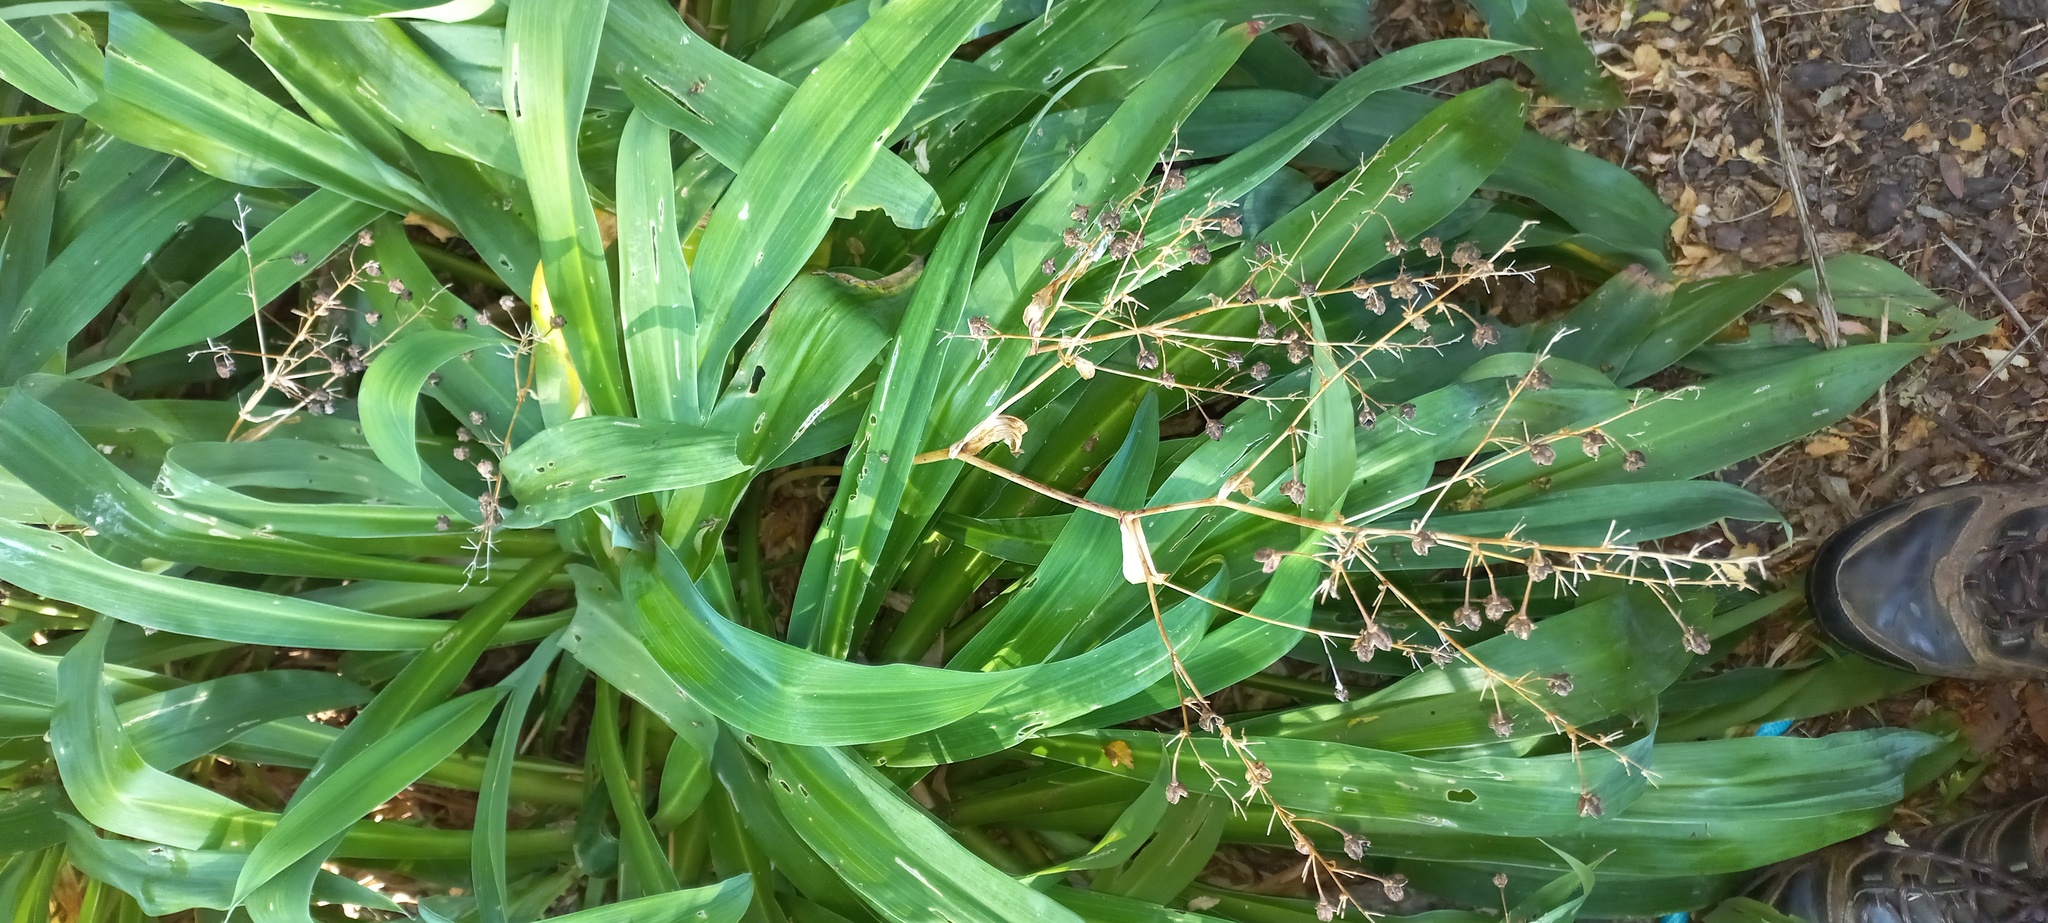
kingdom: Plantae
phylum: Tracheophyta
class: Liliopsida
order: Asparagales
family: Asparagaceae
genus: Arthropodium
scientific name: Arthropodium cirratum
